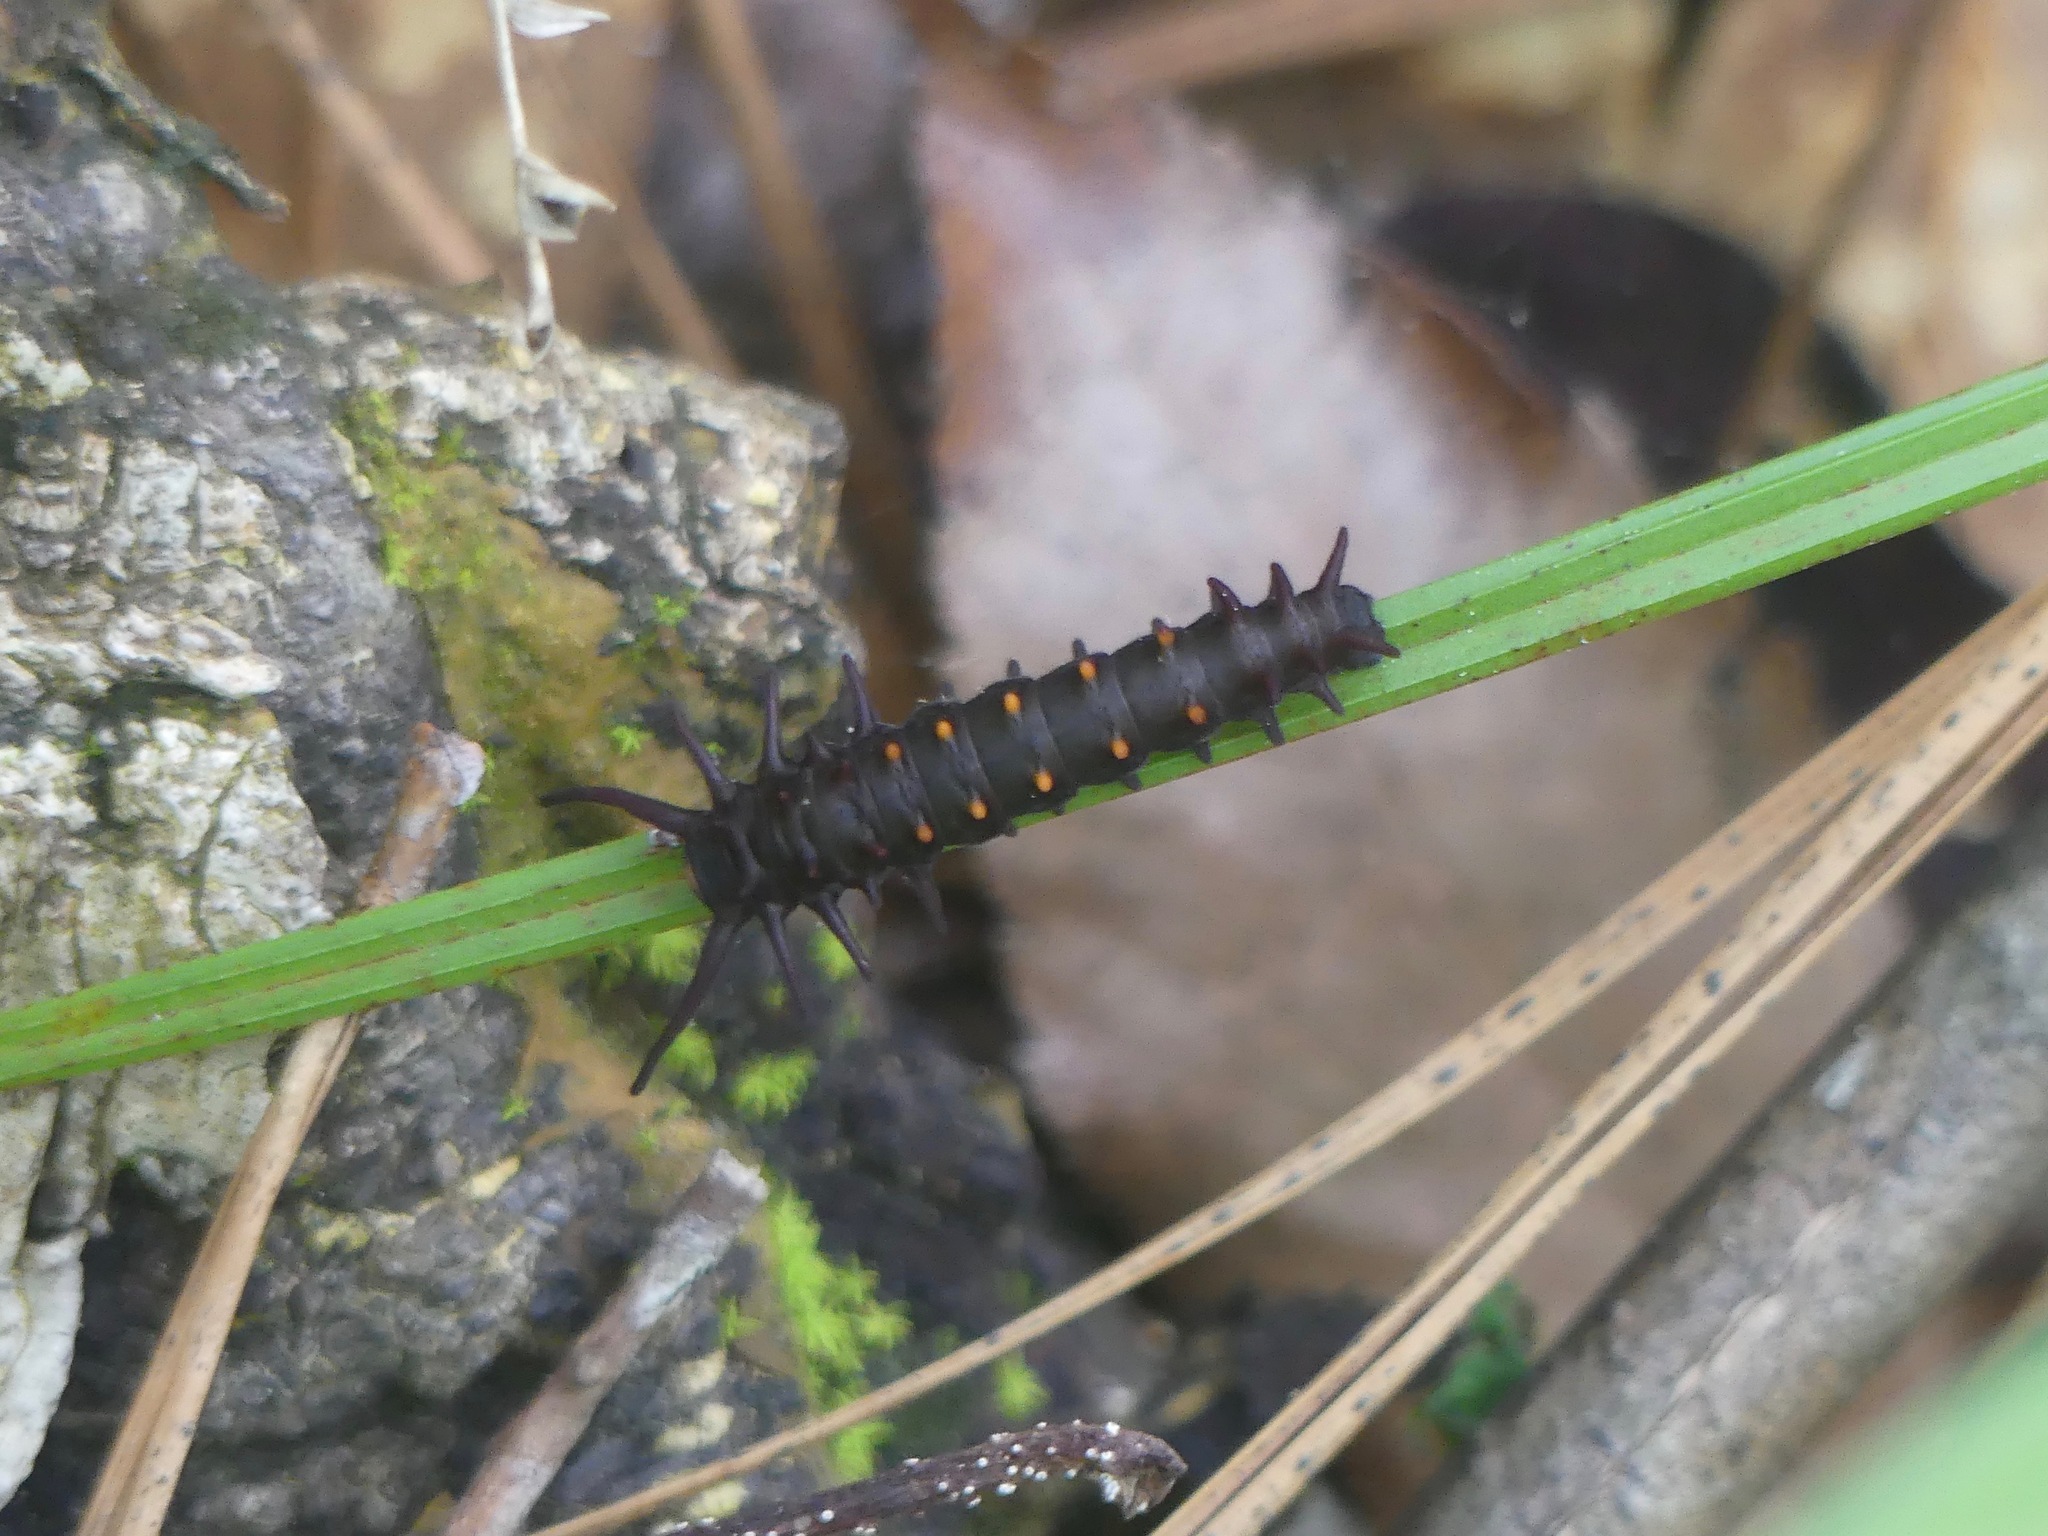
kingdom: Animalia
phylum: Arthropoda
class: Insecta
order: Lepidoptera
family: Papilionidae
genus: Battus
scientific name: Battus philenor
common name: Pipevine swallowtail
